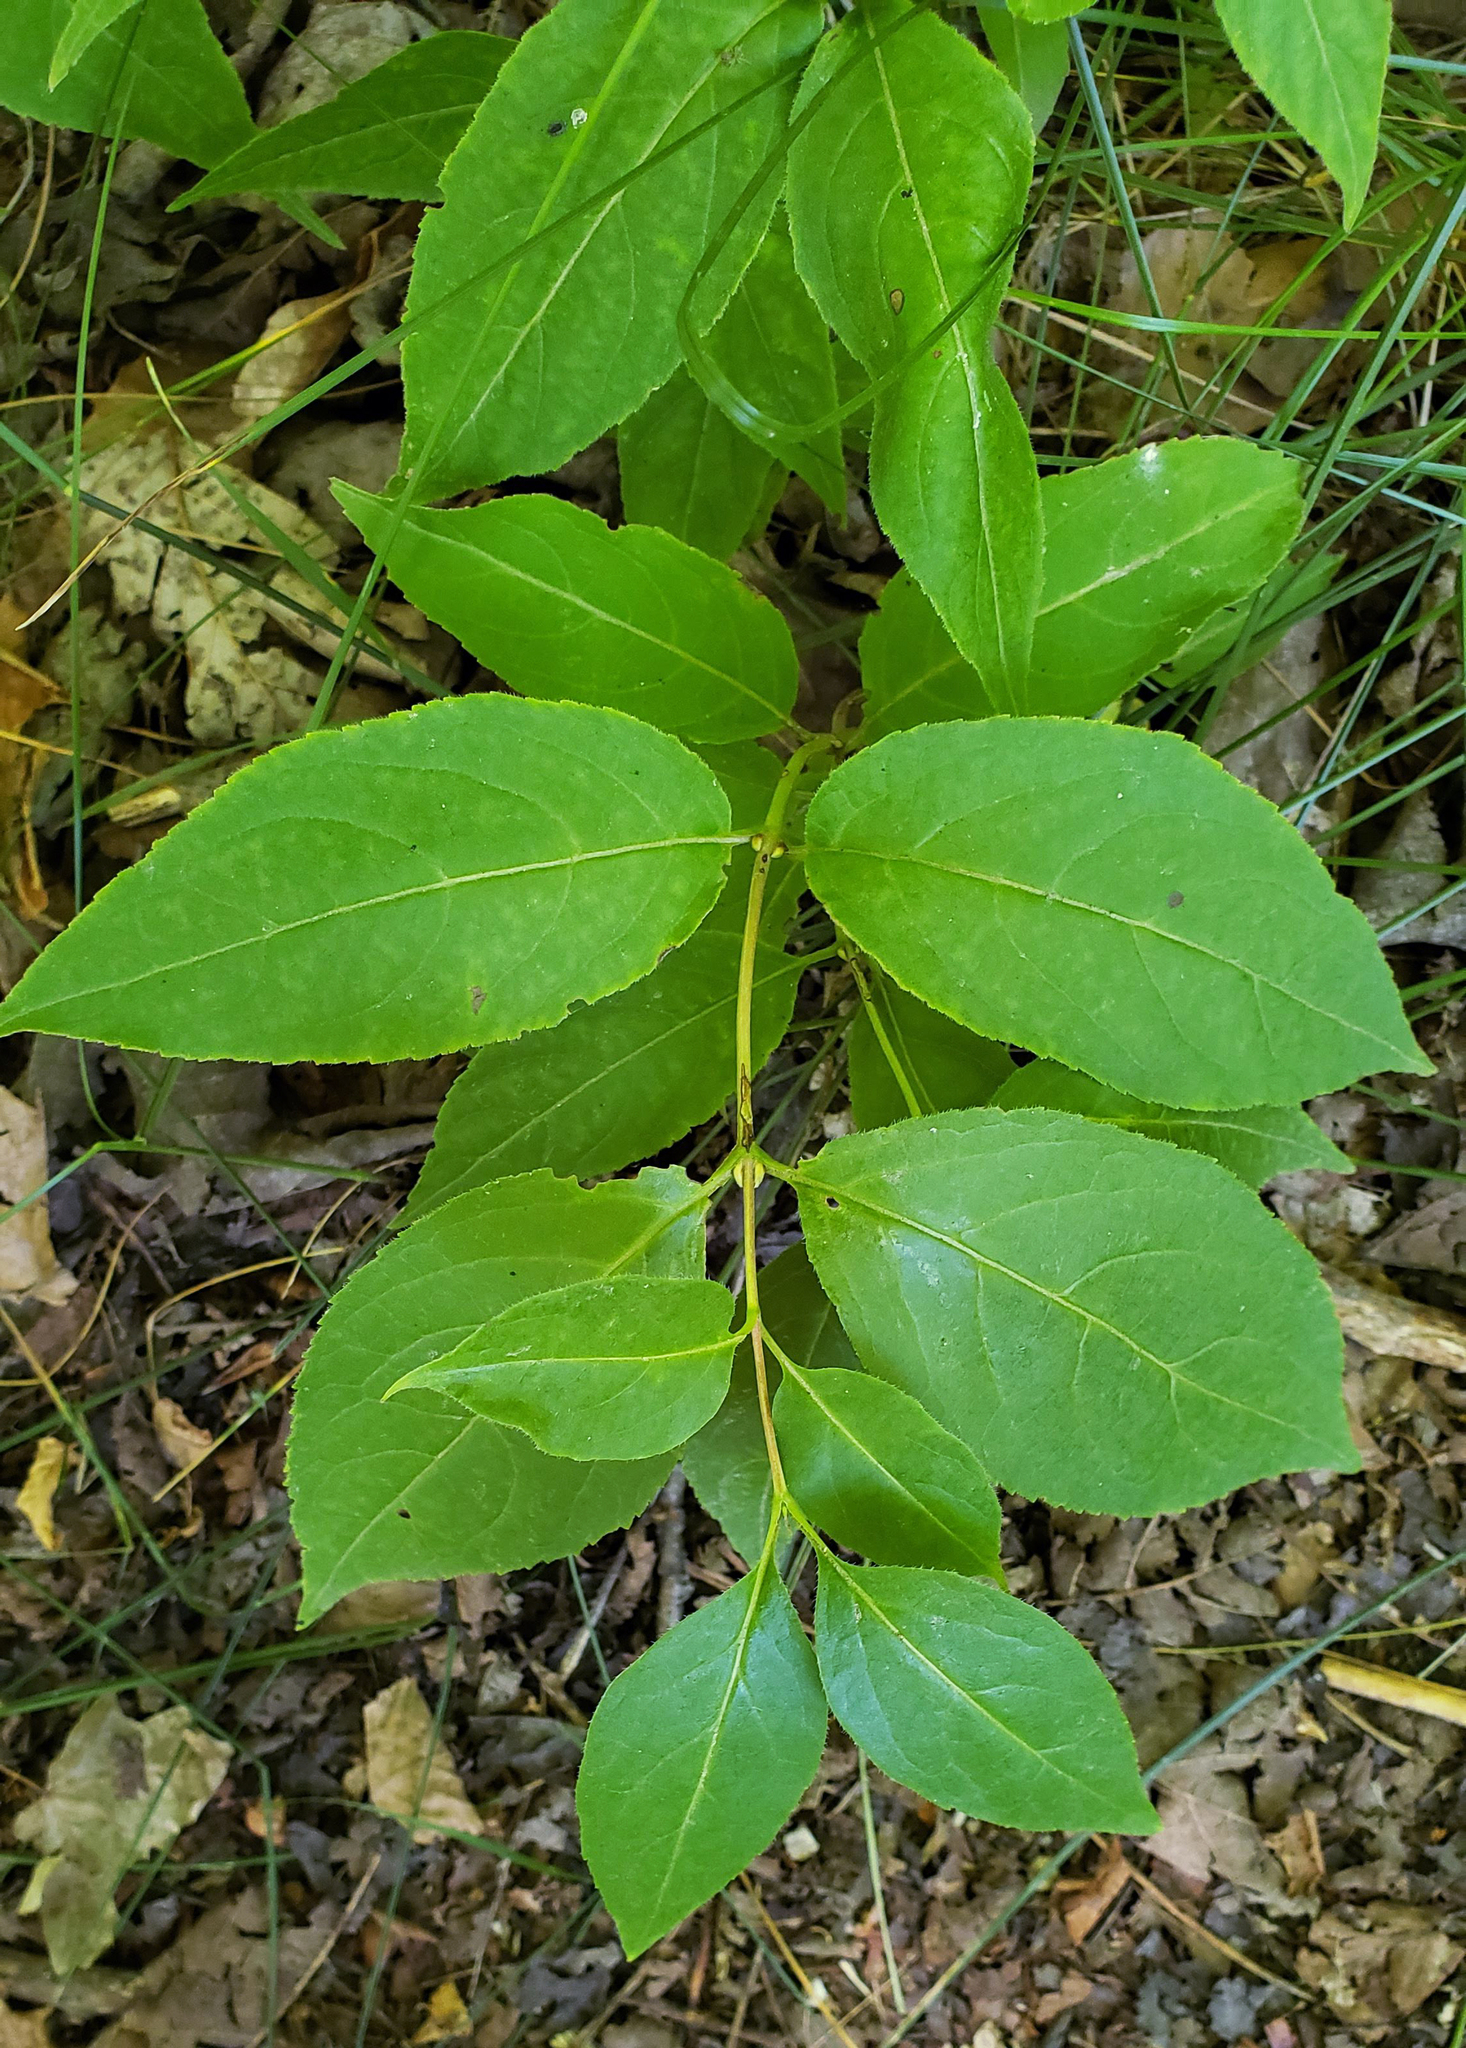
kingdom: Plantae
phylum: Tracheophyta
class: Magnoliopsida
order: Dipsacales
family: Caprifoliaceae
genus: Diervilla
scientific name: Diervilla lonicera
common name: Bush-honeysuckle
